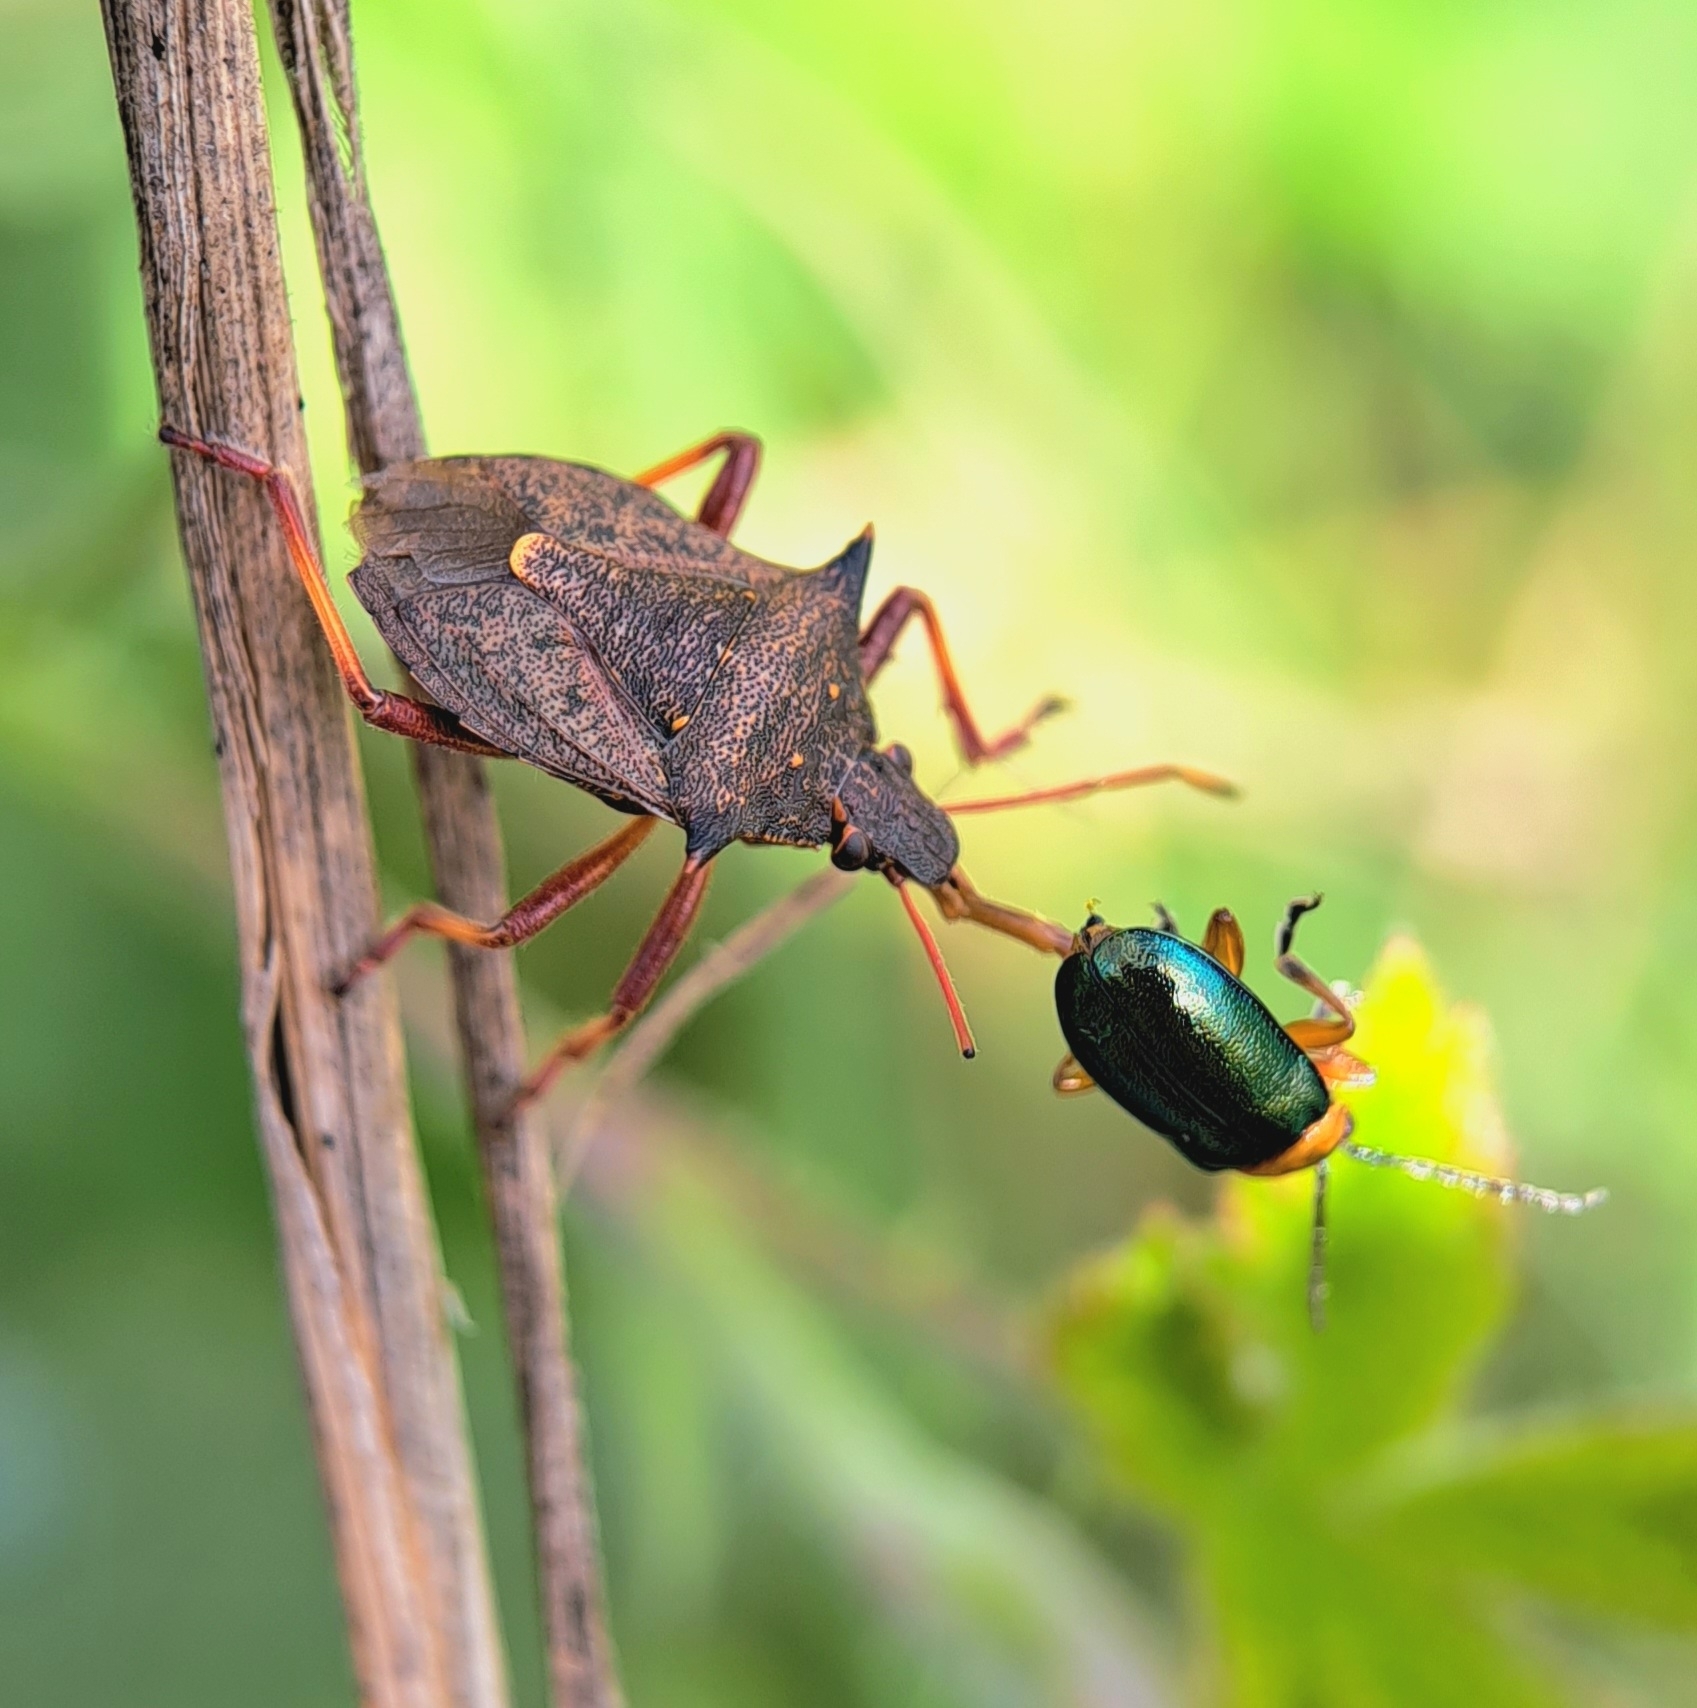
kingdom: Animalia
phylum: Arthropoda
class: Insecta
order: Hemiptera
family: Pentatomidae
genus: Picromerus
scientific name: Picromerus bidens
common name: Spiked shieldbug
